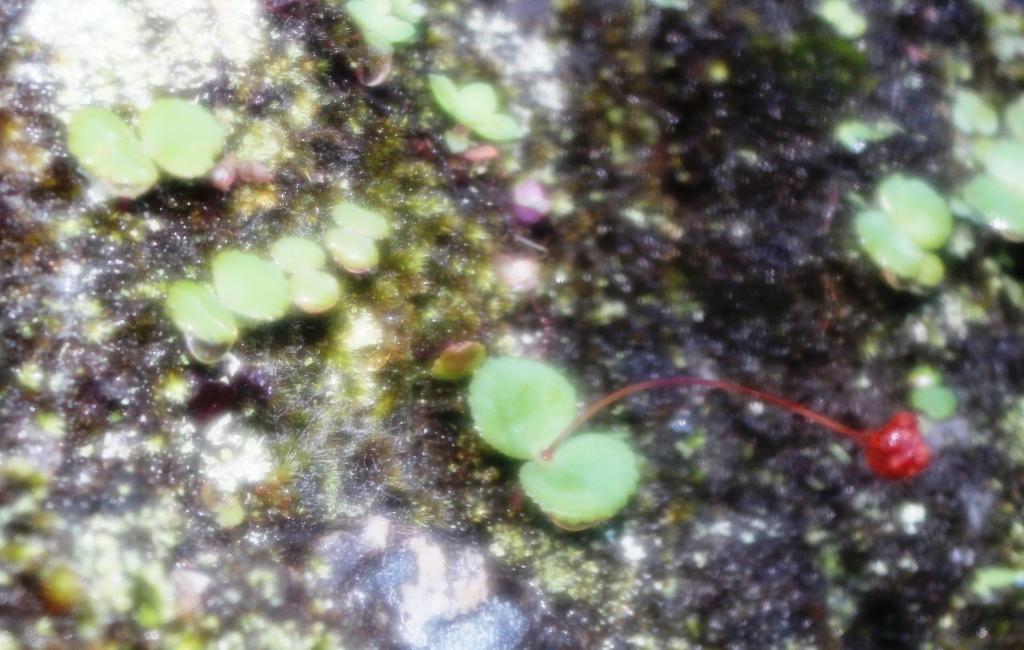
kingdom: Plantae
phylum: Tracheophyta
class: Magnoliopsida
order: Saxifragales
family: Crassulaceae
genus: Crassula
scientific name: Crassula capensis
